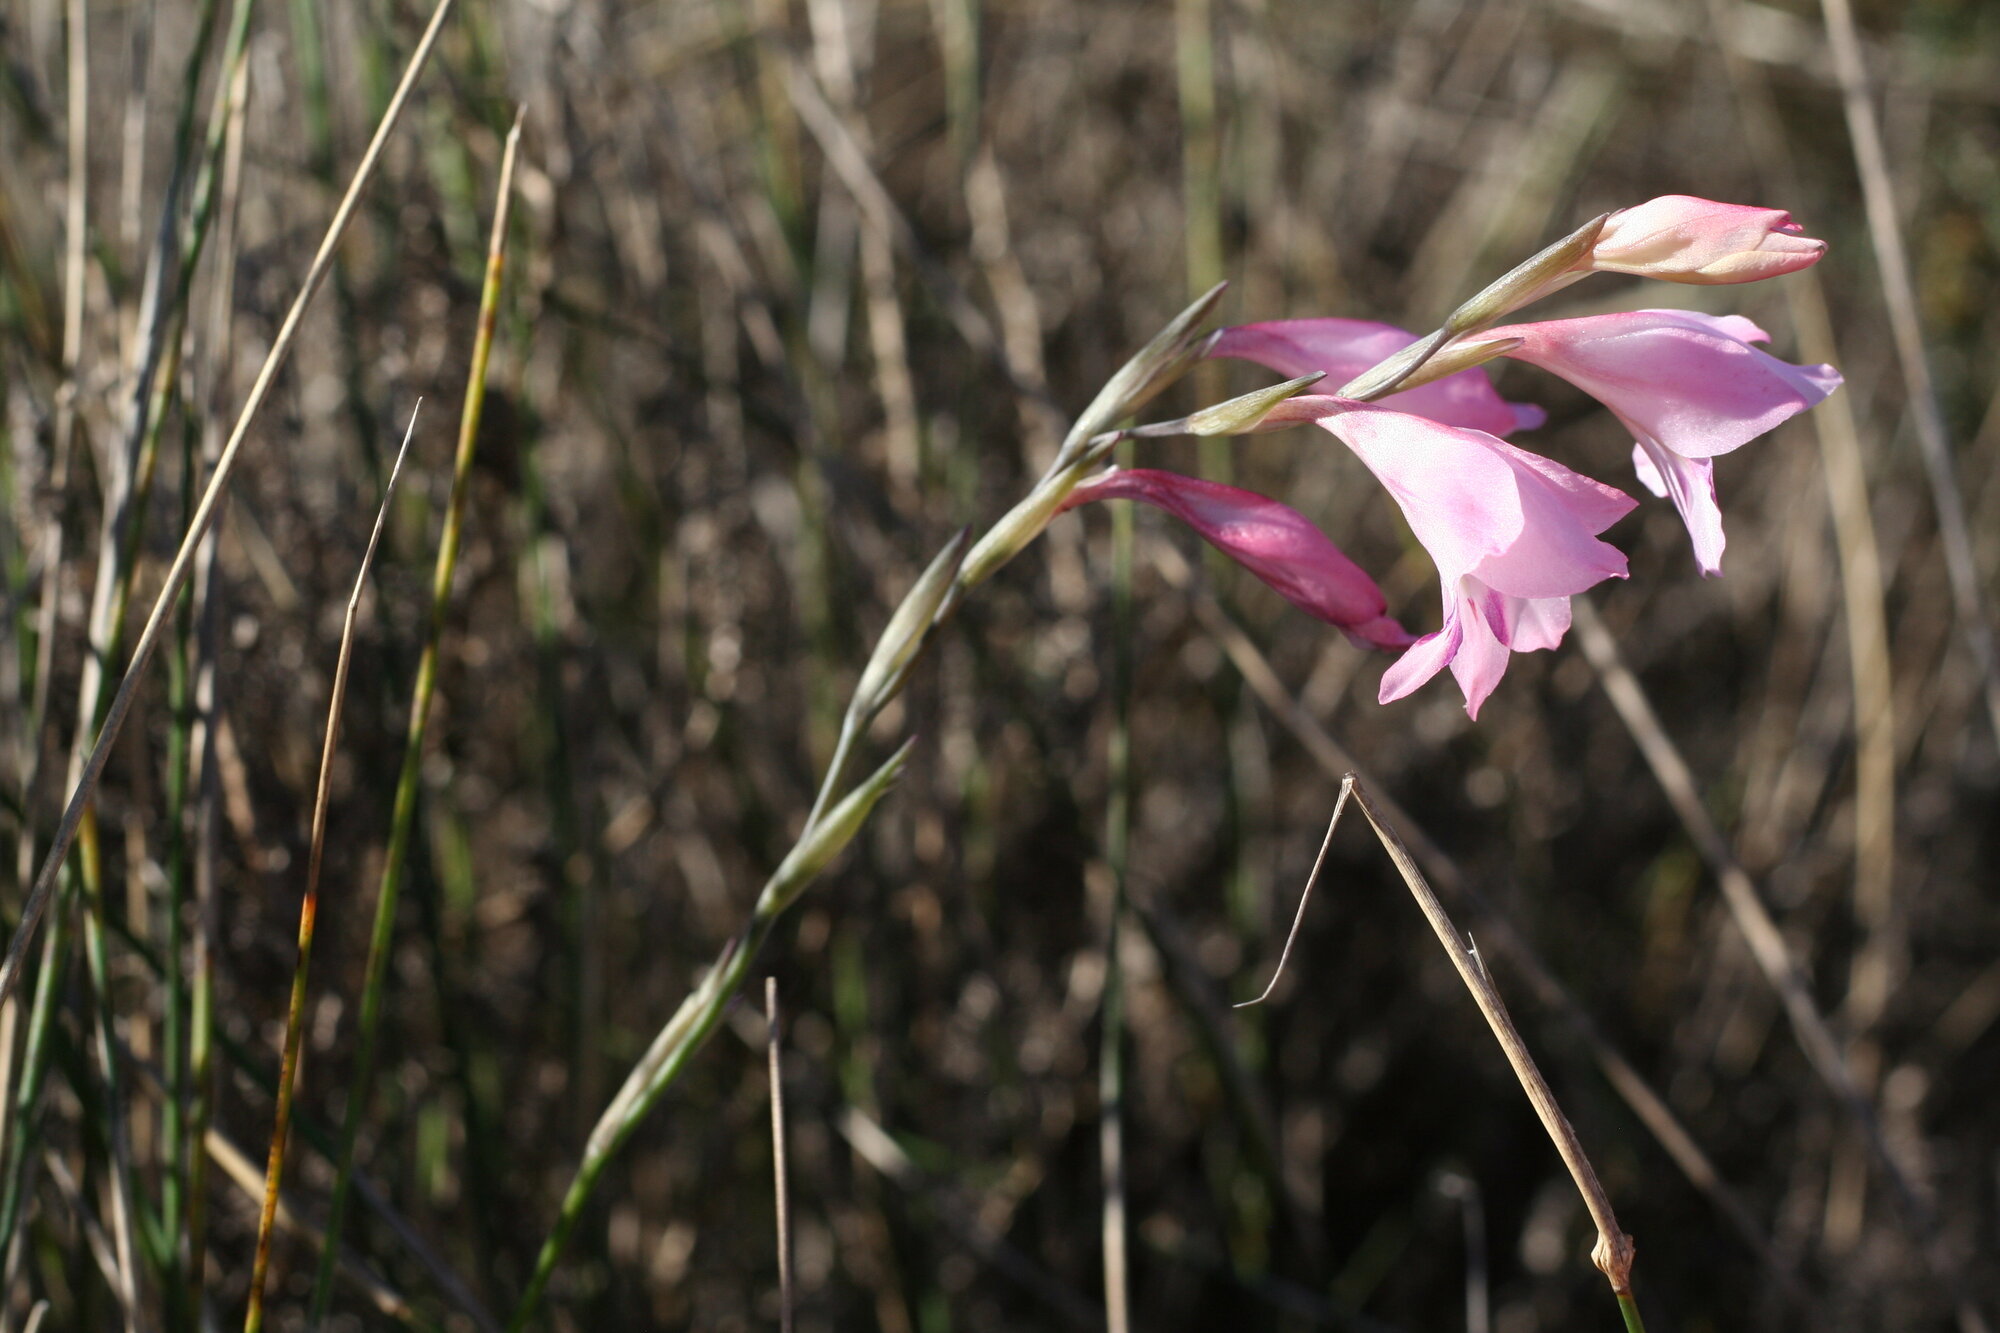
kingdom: Plantae
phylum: Tracheophyta
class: Liliopsida
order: Asparagales
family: Iridaceae
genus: Gladiolus
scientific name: Gladiolus brevifolius
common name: March pypie
